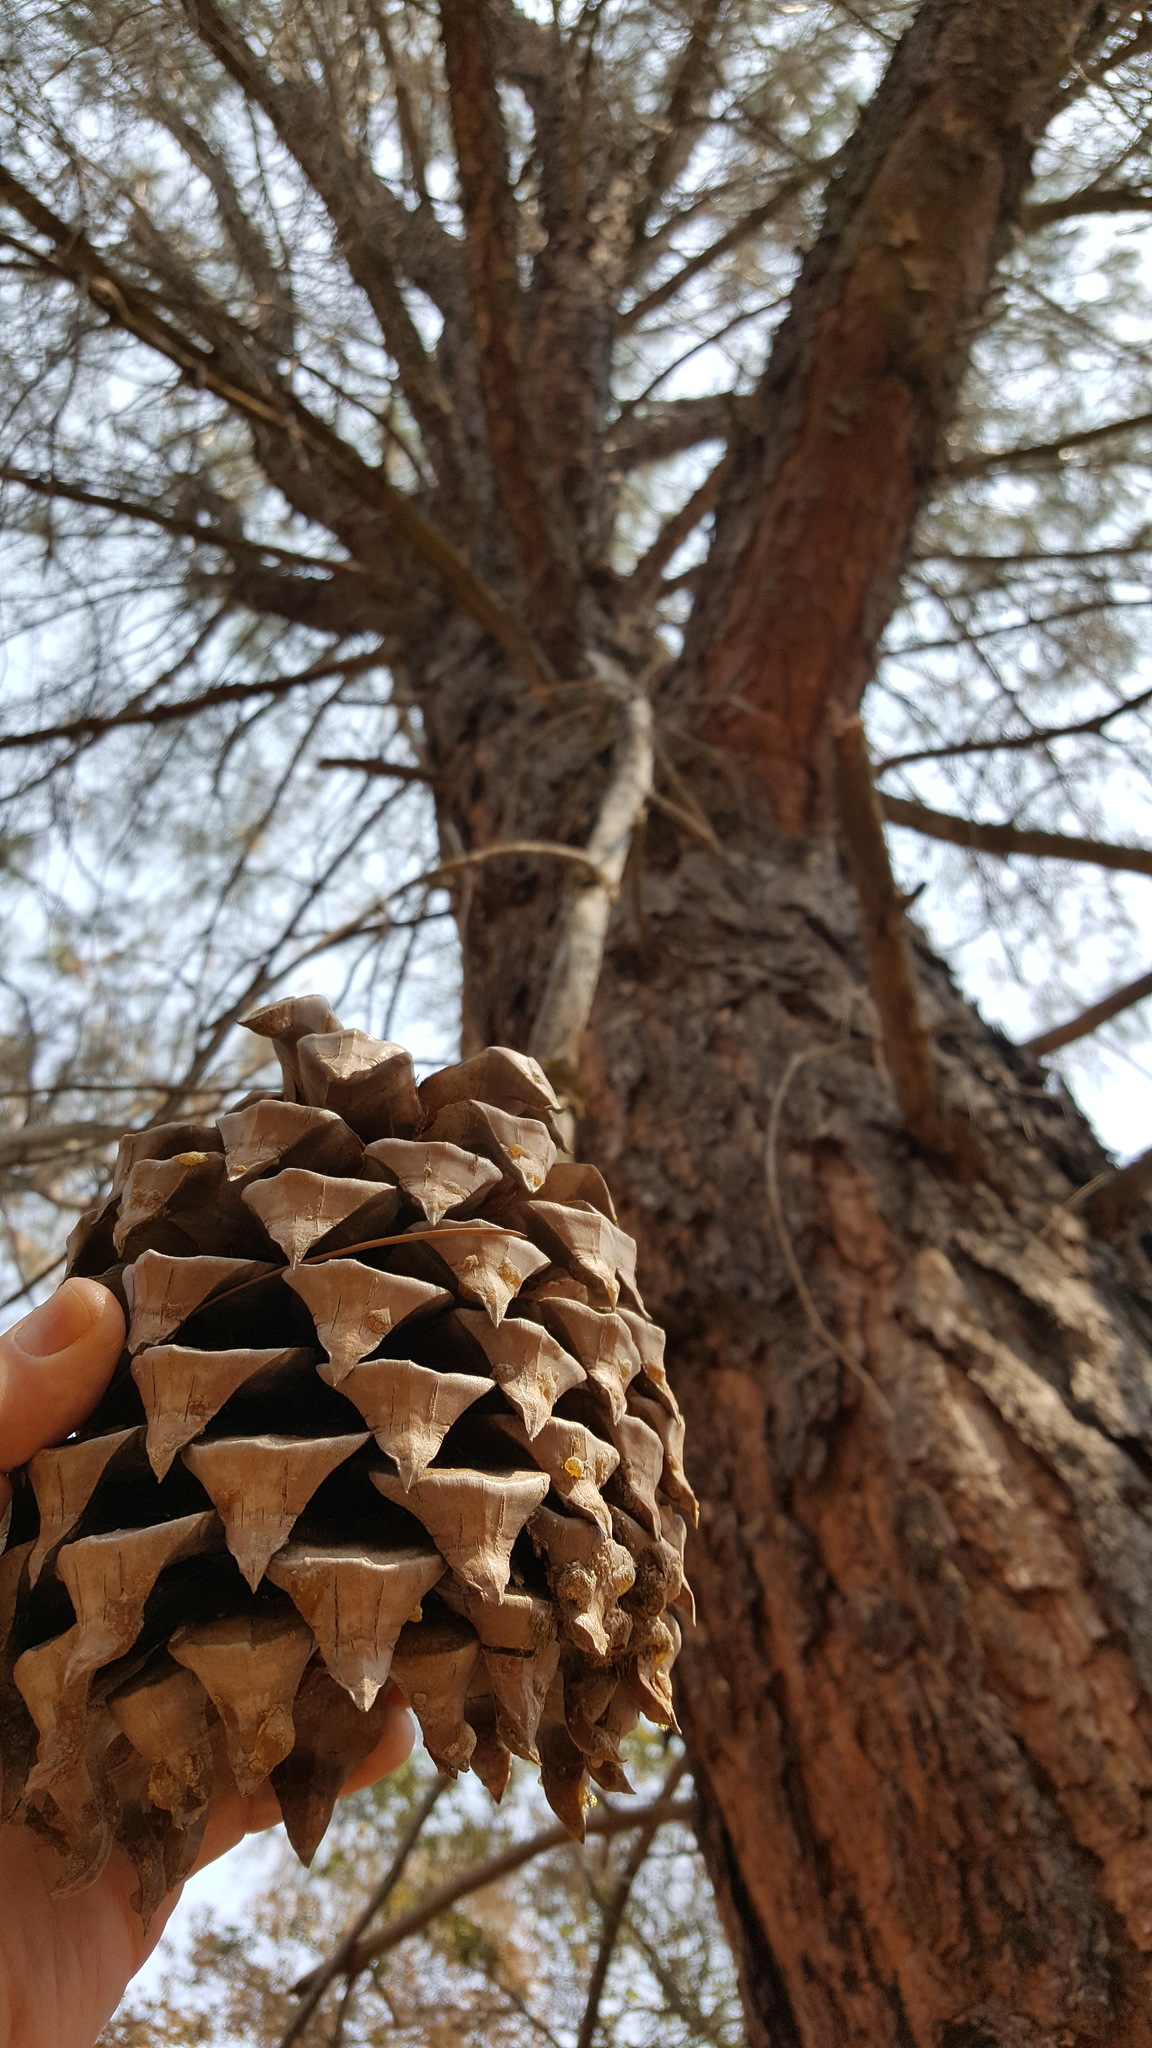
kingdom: Plantae
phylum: Tracheophyta
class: Pinopsida
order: Pinales
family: Pinaceae
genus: Pinus
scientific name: Pinus sabiniana
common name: Bull pine
